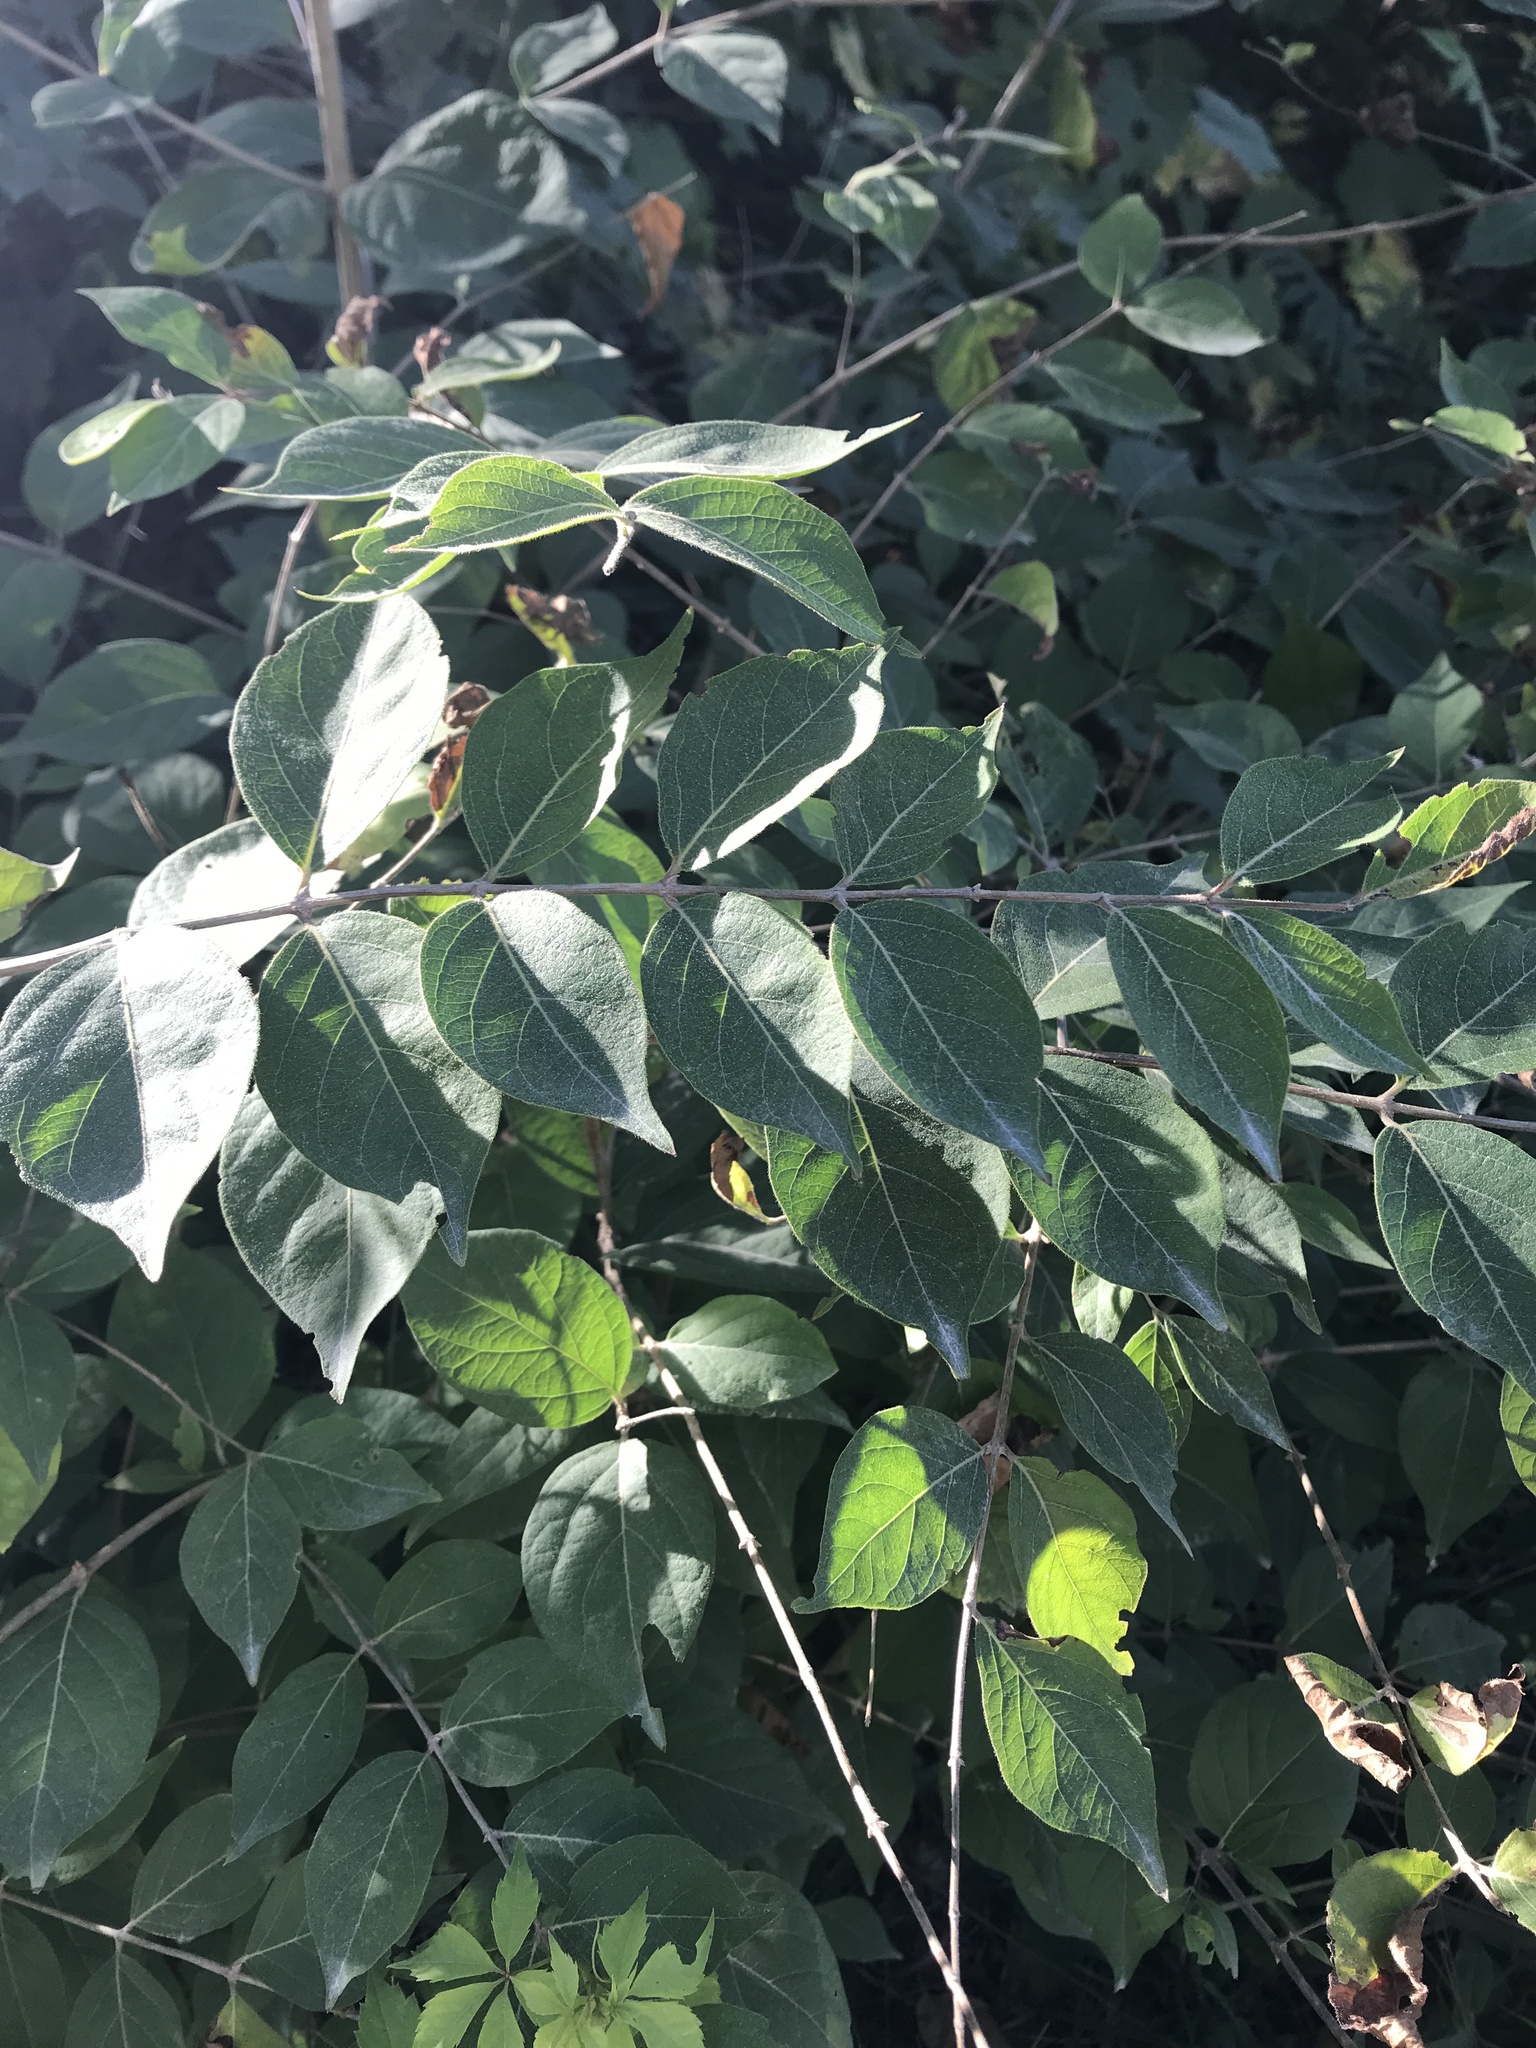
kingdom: Plantae
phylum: Tracheophyta
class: Magnoliopsida
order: Dipsacales
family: Caprifoliaceae
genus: Lonicera
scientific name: Lonicera maackii
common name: Amur honeysuckle
